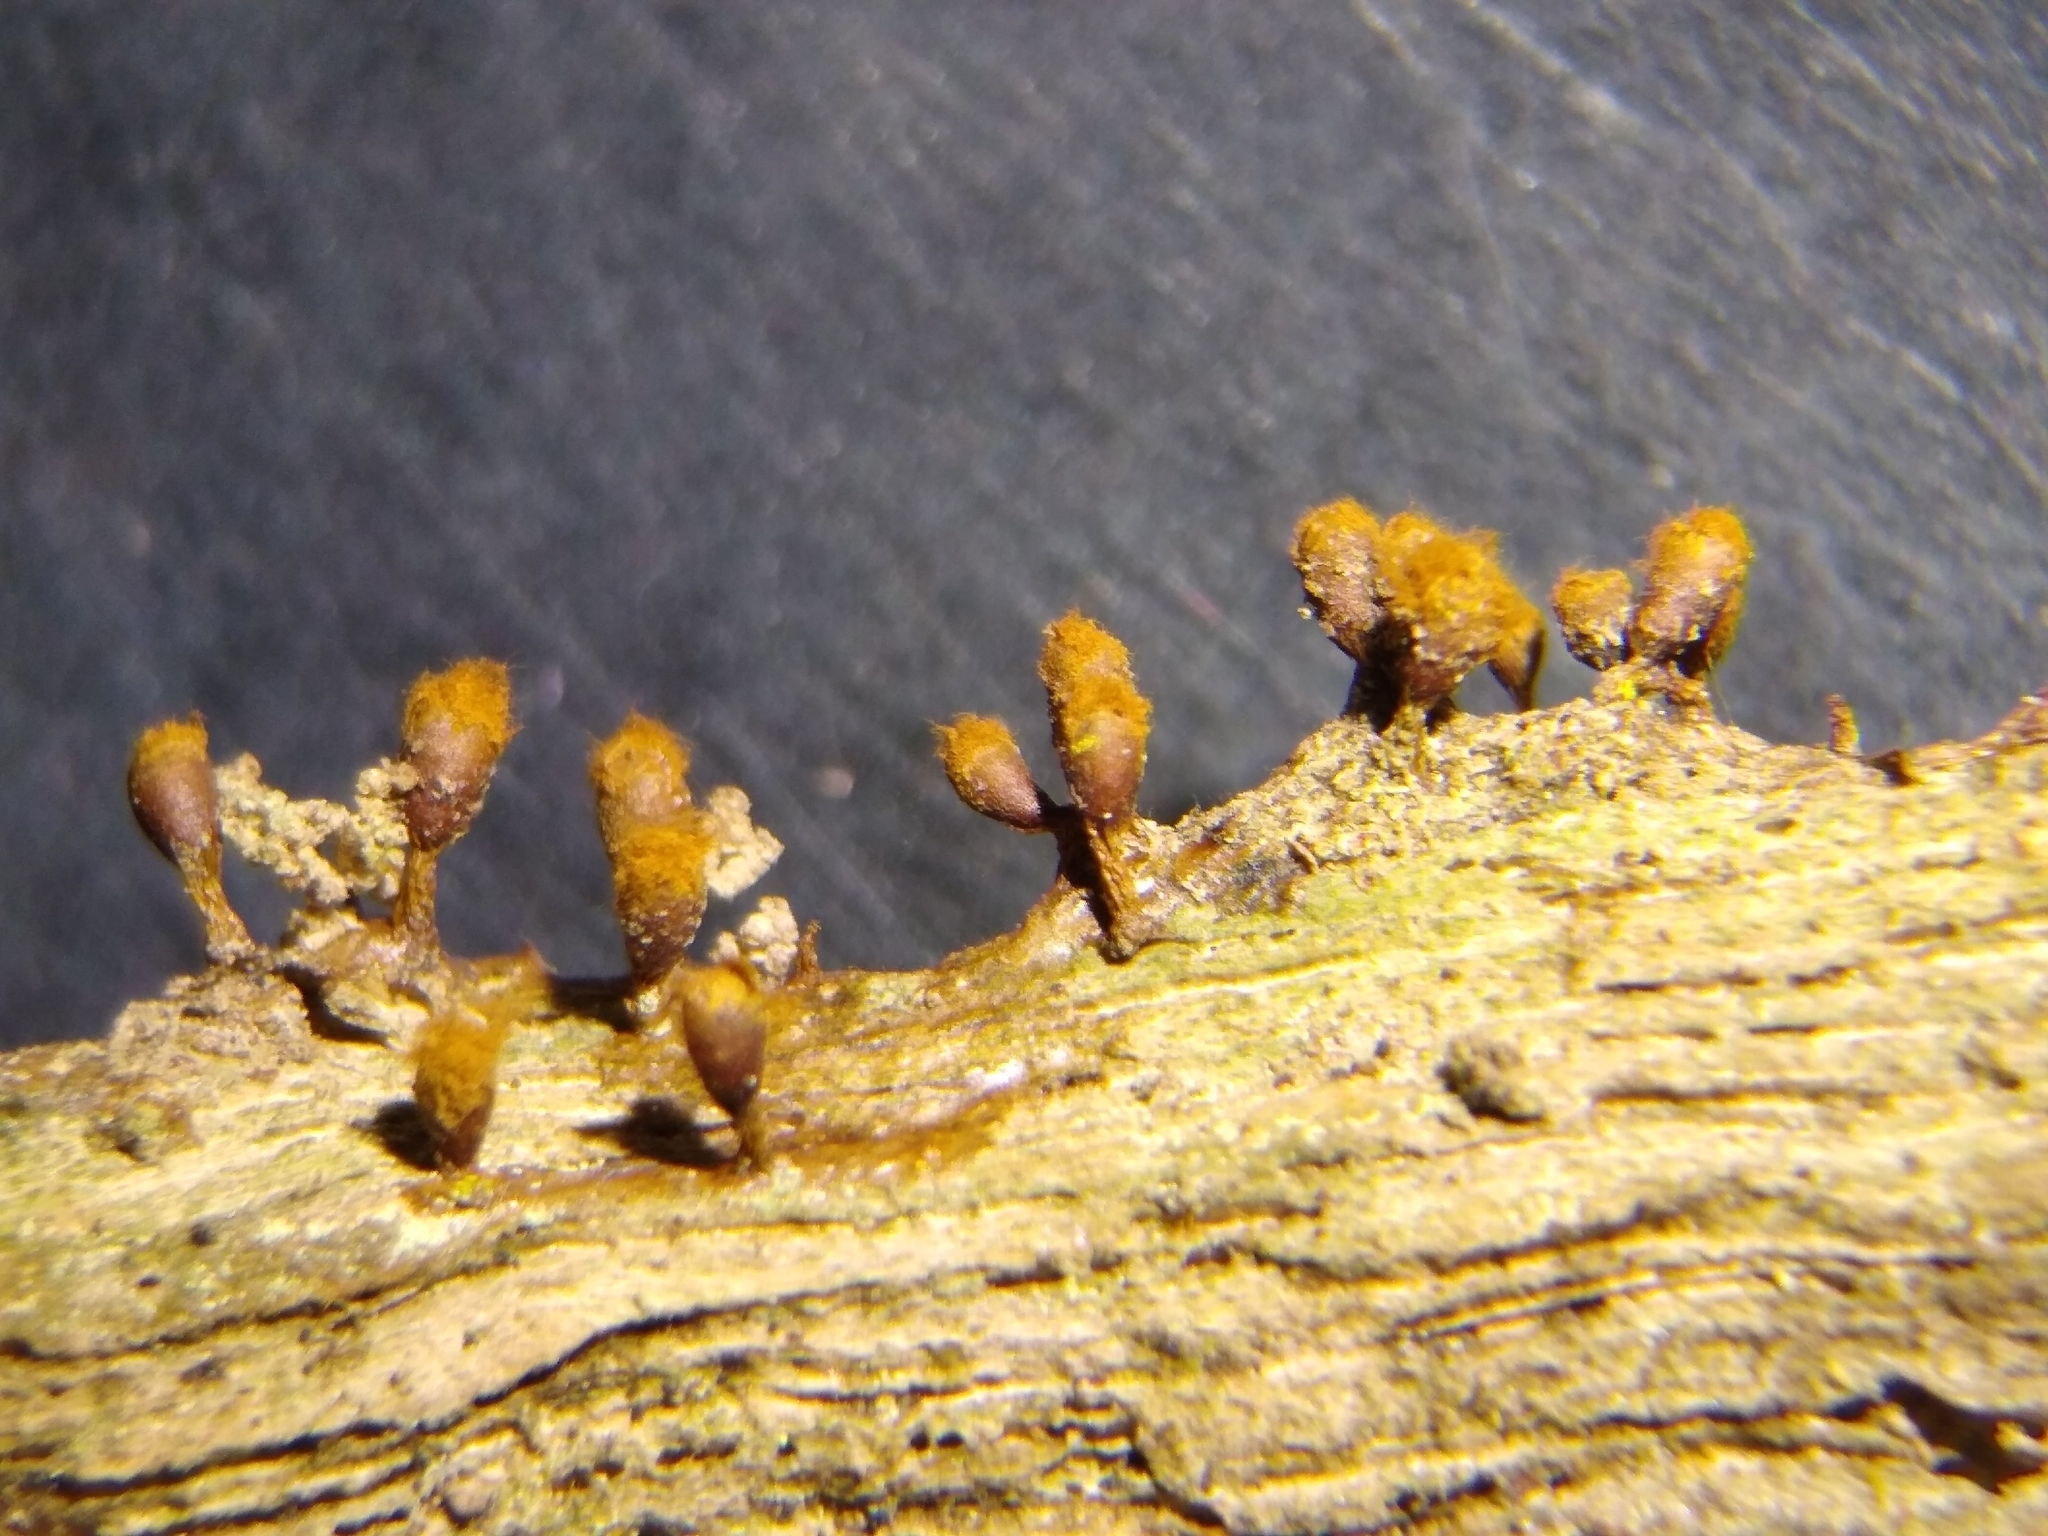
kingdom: Protozoa
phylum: Mycetozoa
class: Myxomycetes
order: Trichiales
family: Trichiaceae
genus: Trichia
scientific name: Trichia botrytis
